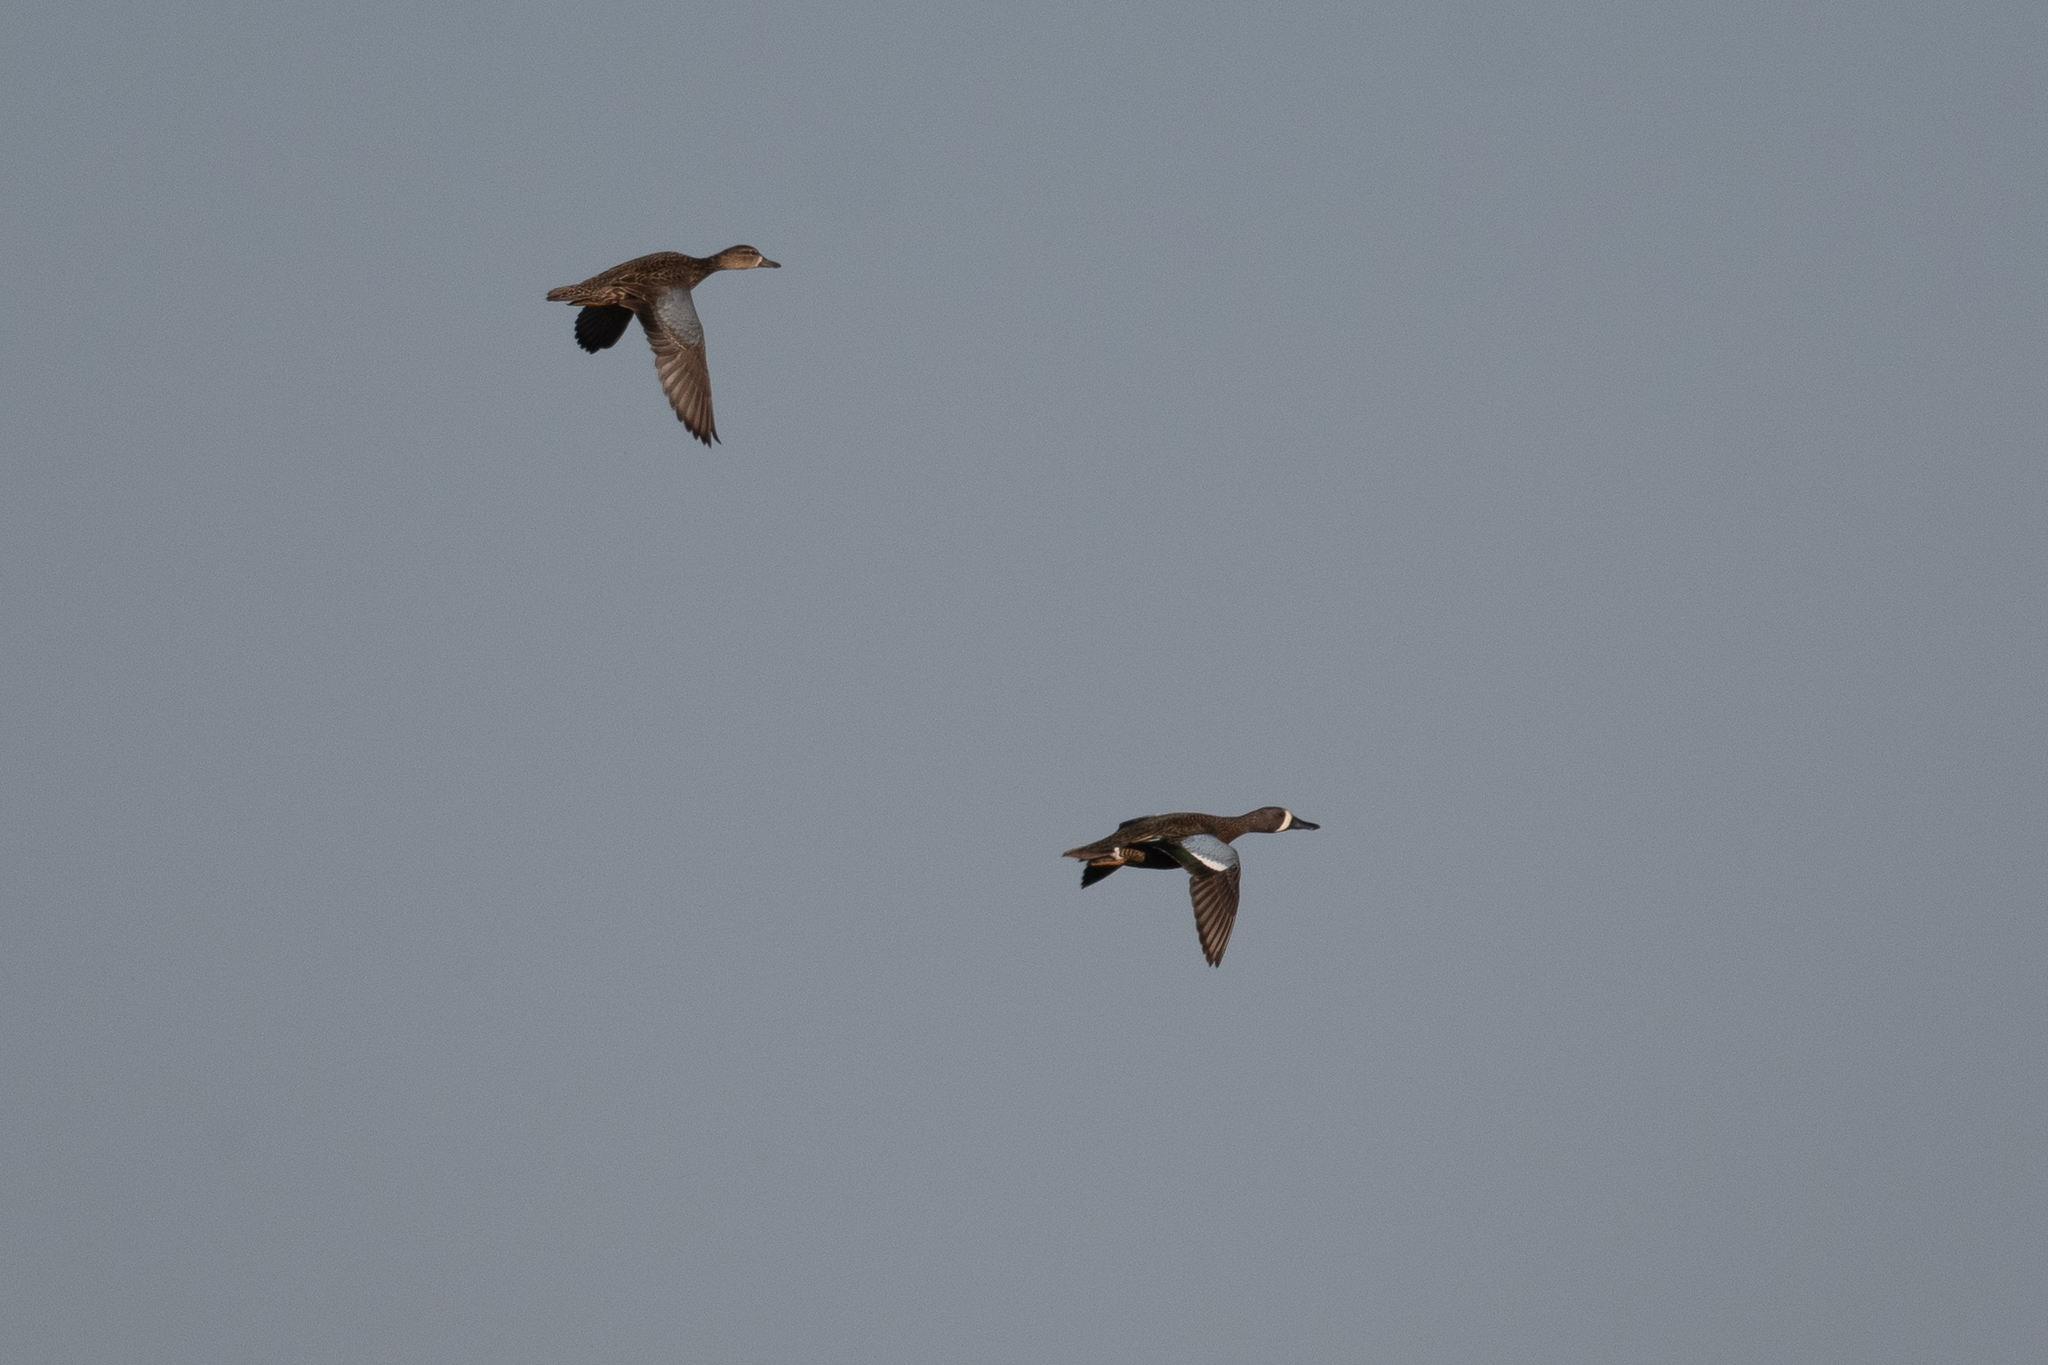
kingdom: Animalia
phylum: Chordata
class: Aves
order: Anseriformes
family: Anatidae
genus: Spatula
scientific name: Spatula discors
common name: Blue-winged teal
